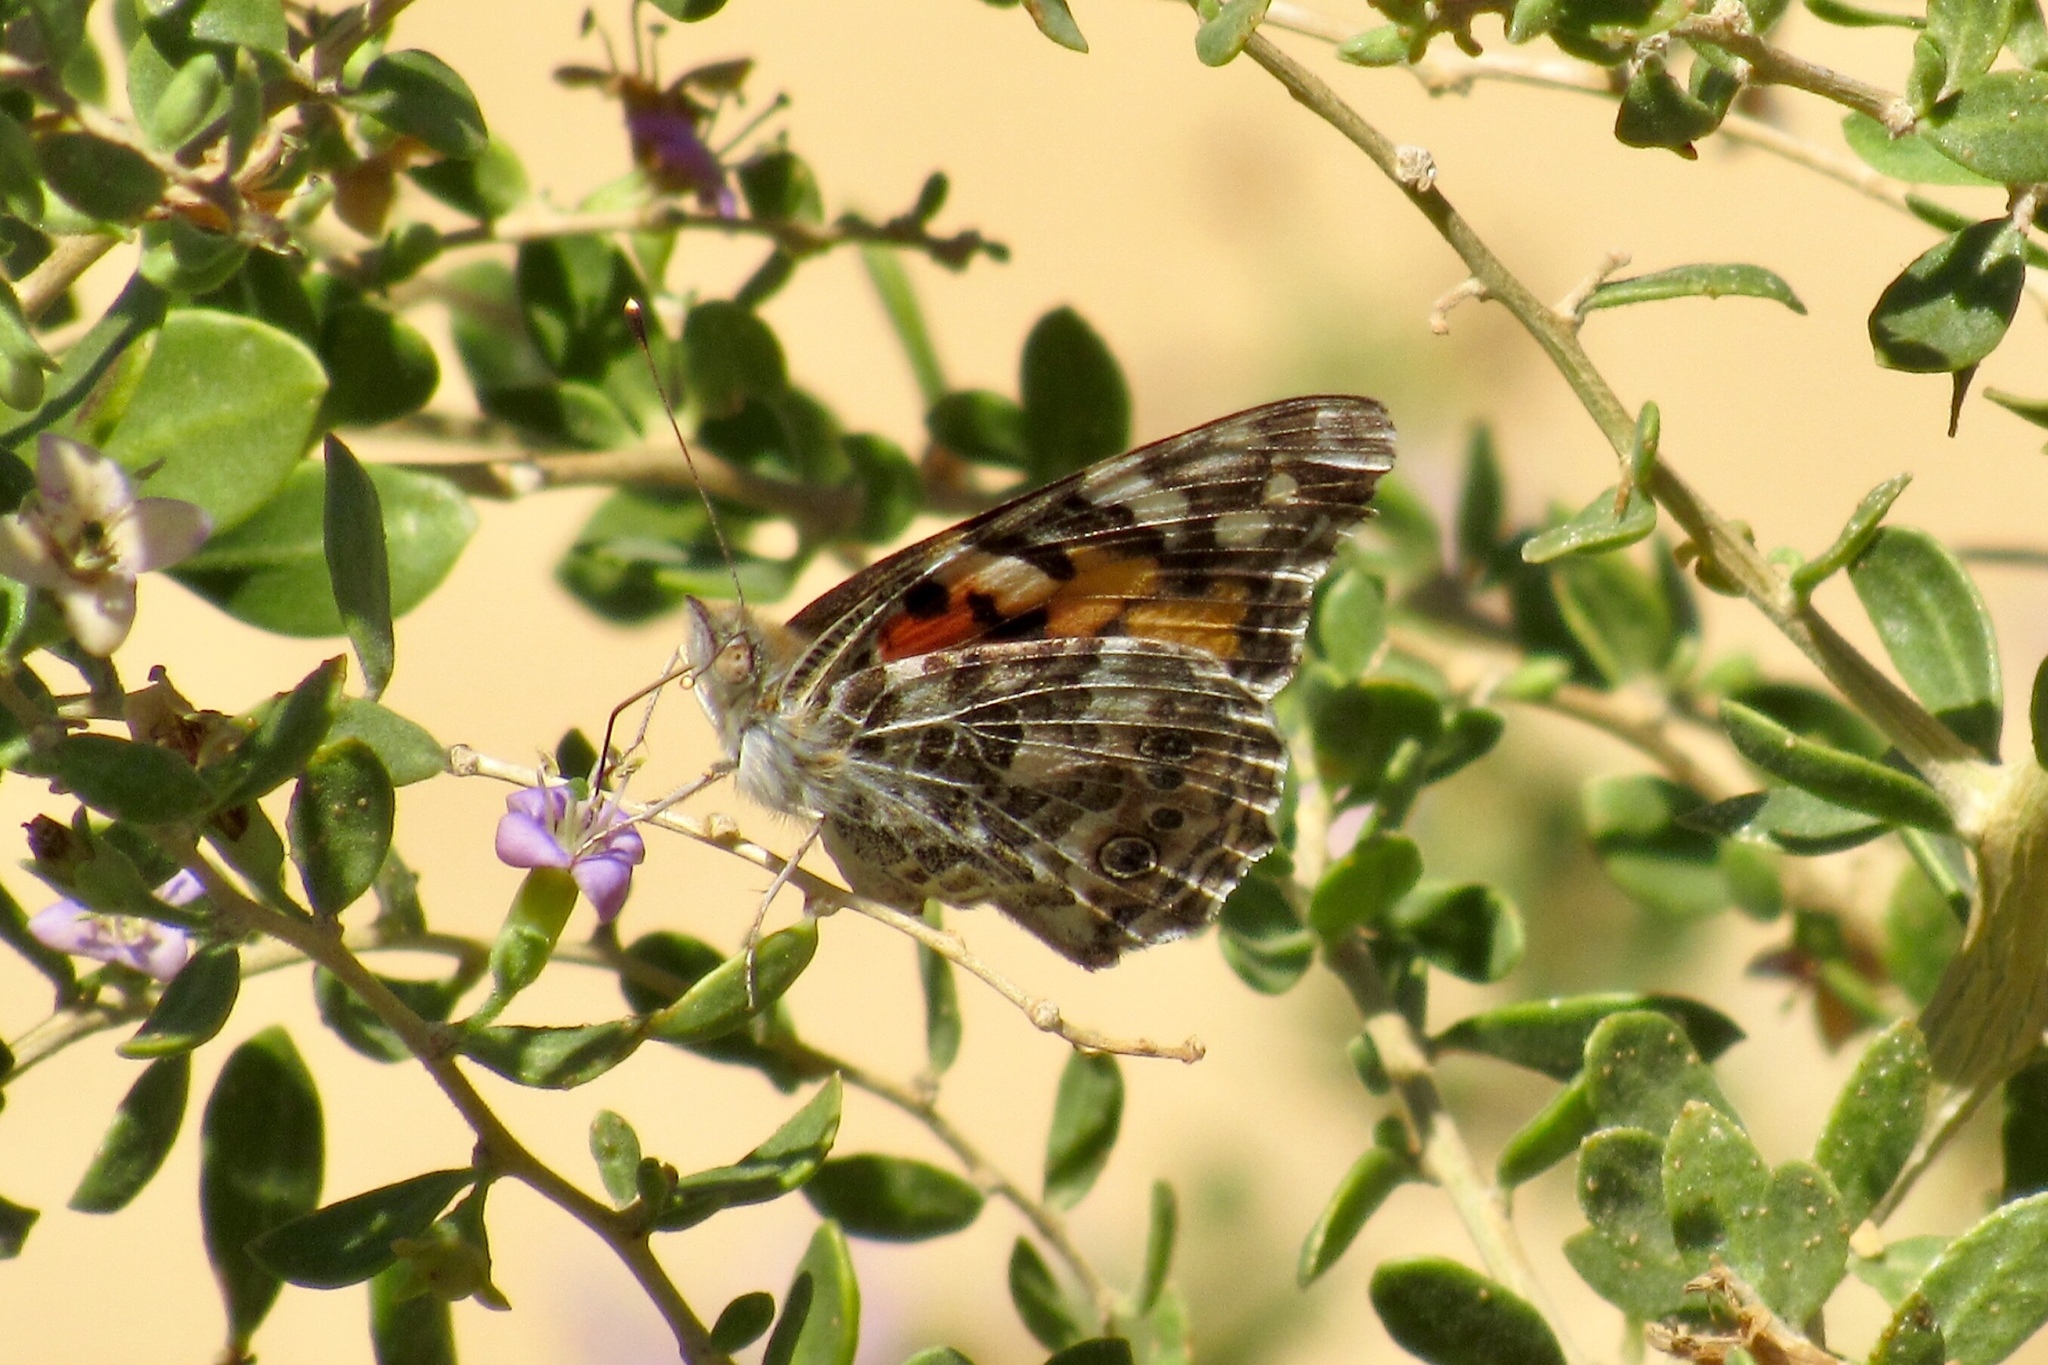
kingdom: Animalia
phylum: Arthropoda
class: Insecta
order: Lepidoptera
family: Nymphalidae
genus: Vanessa
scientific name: Vanessa cardui
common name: Painted lady
